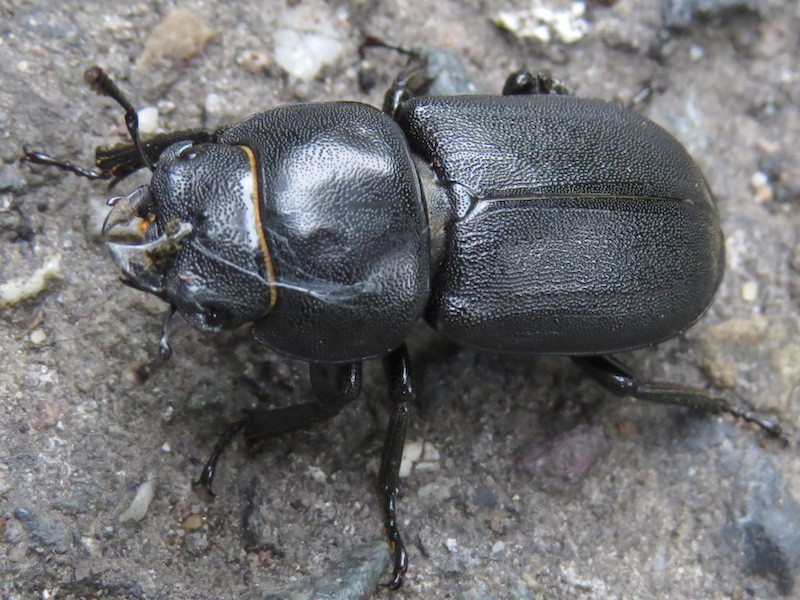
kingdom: Animalia
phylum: Arthropoda
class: Insecta
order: Coleoptera
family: Lucanidae
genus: Dorcus
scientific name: Dorcus parallelipipedus
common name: Lesser stag beetle
